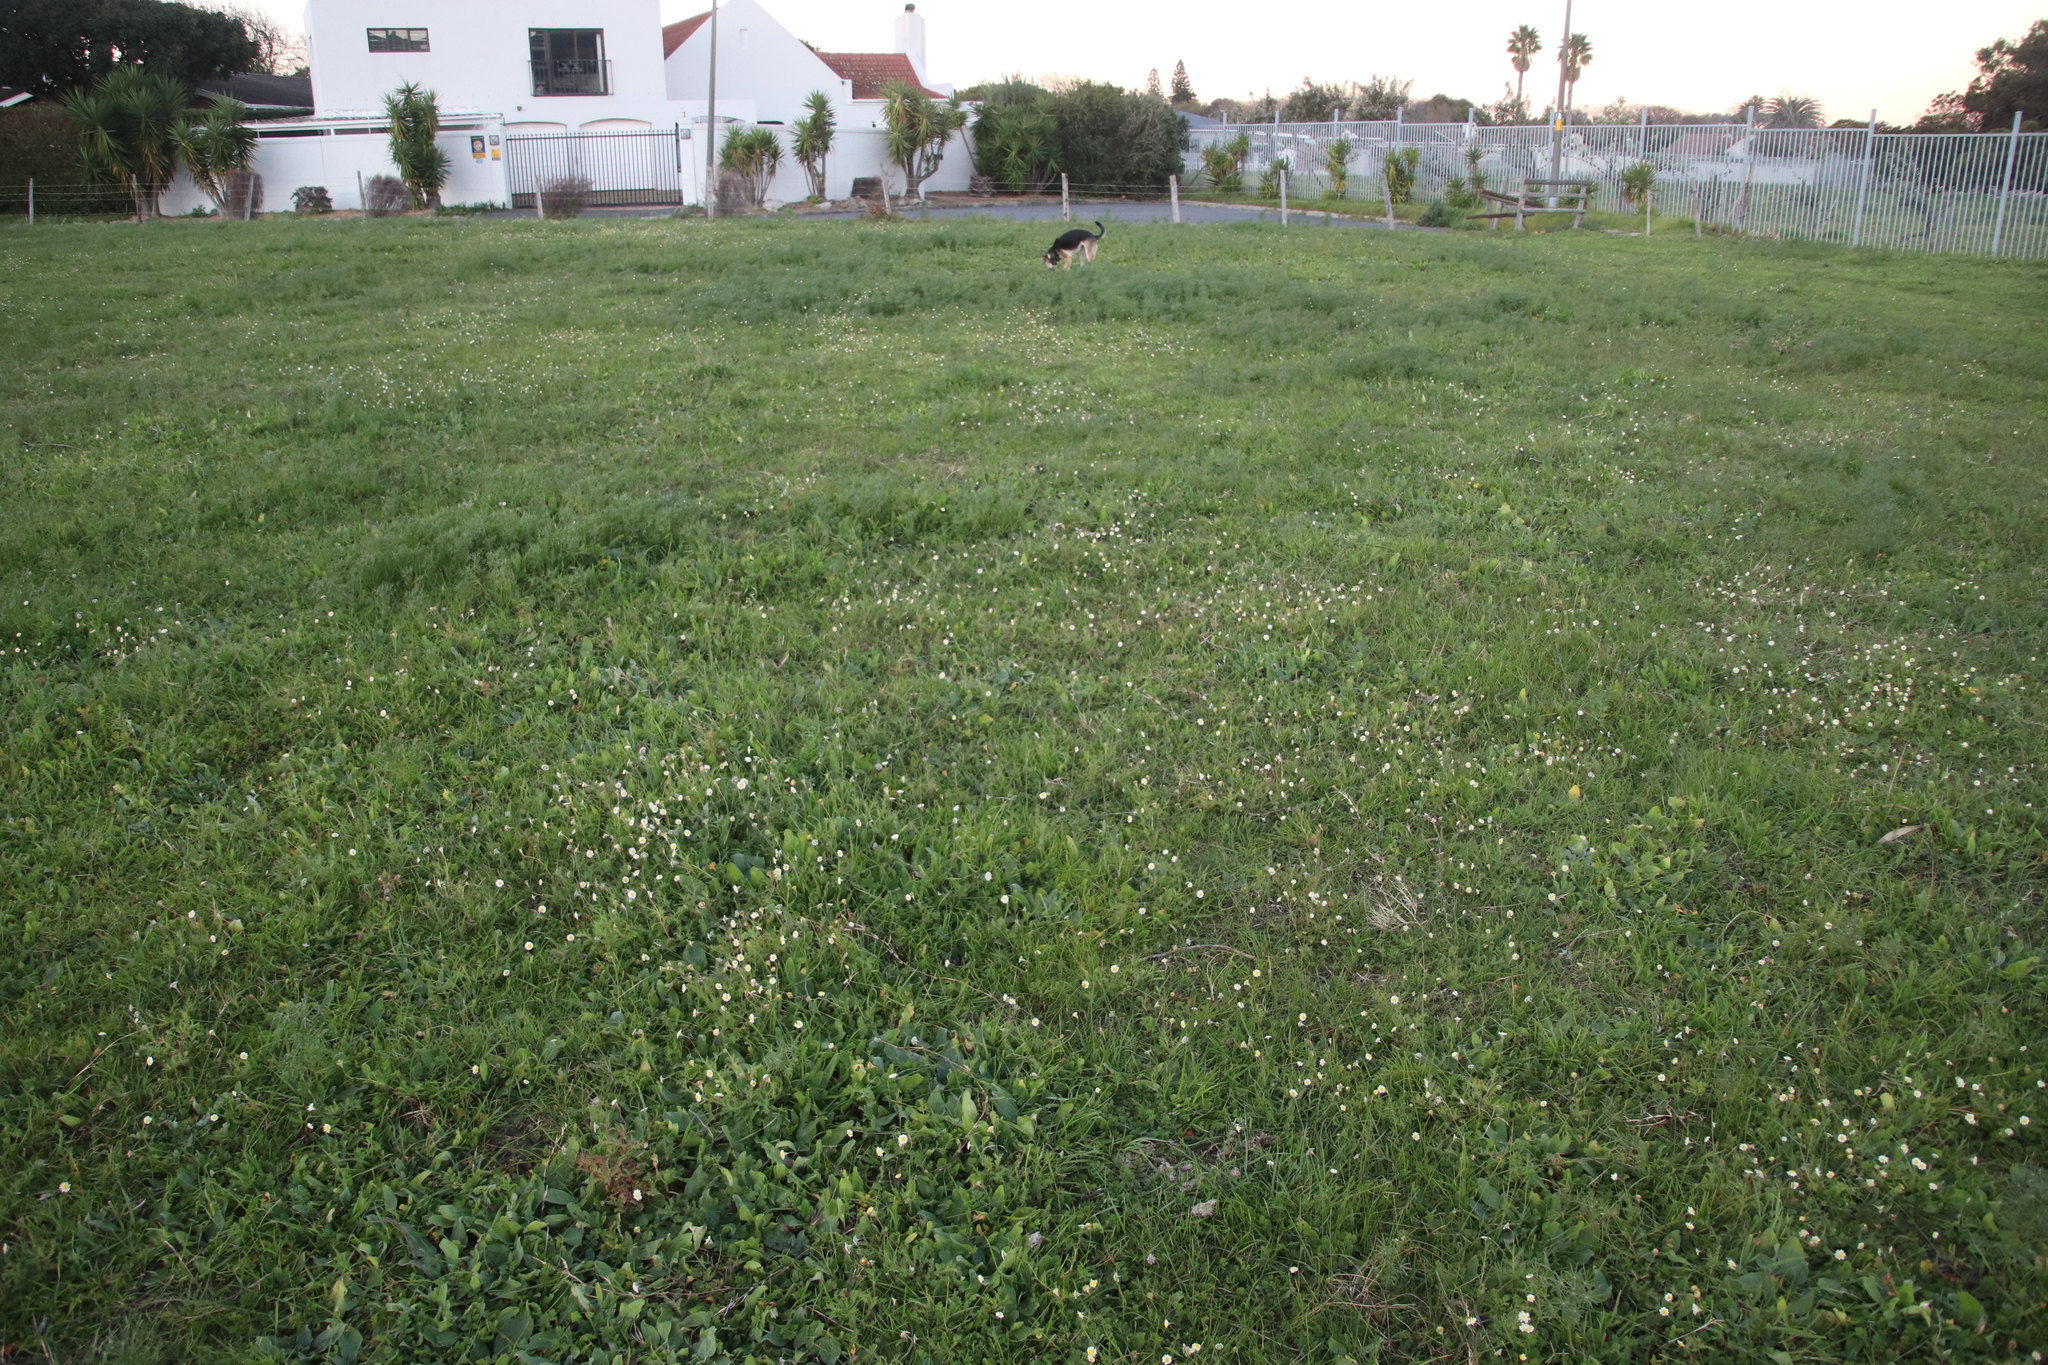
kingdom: Plantae
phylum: Tracheophyta
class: Magnoliopsida
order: Asterales
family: Asteraceae
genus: Cotula
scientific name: Cotula turbinata
